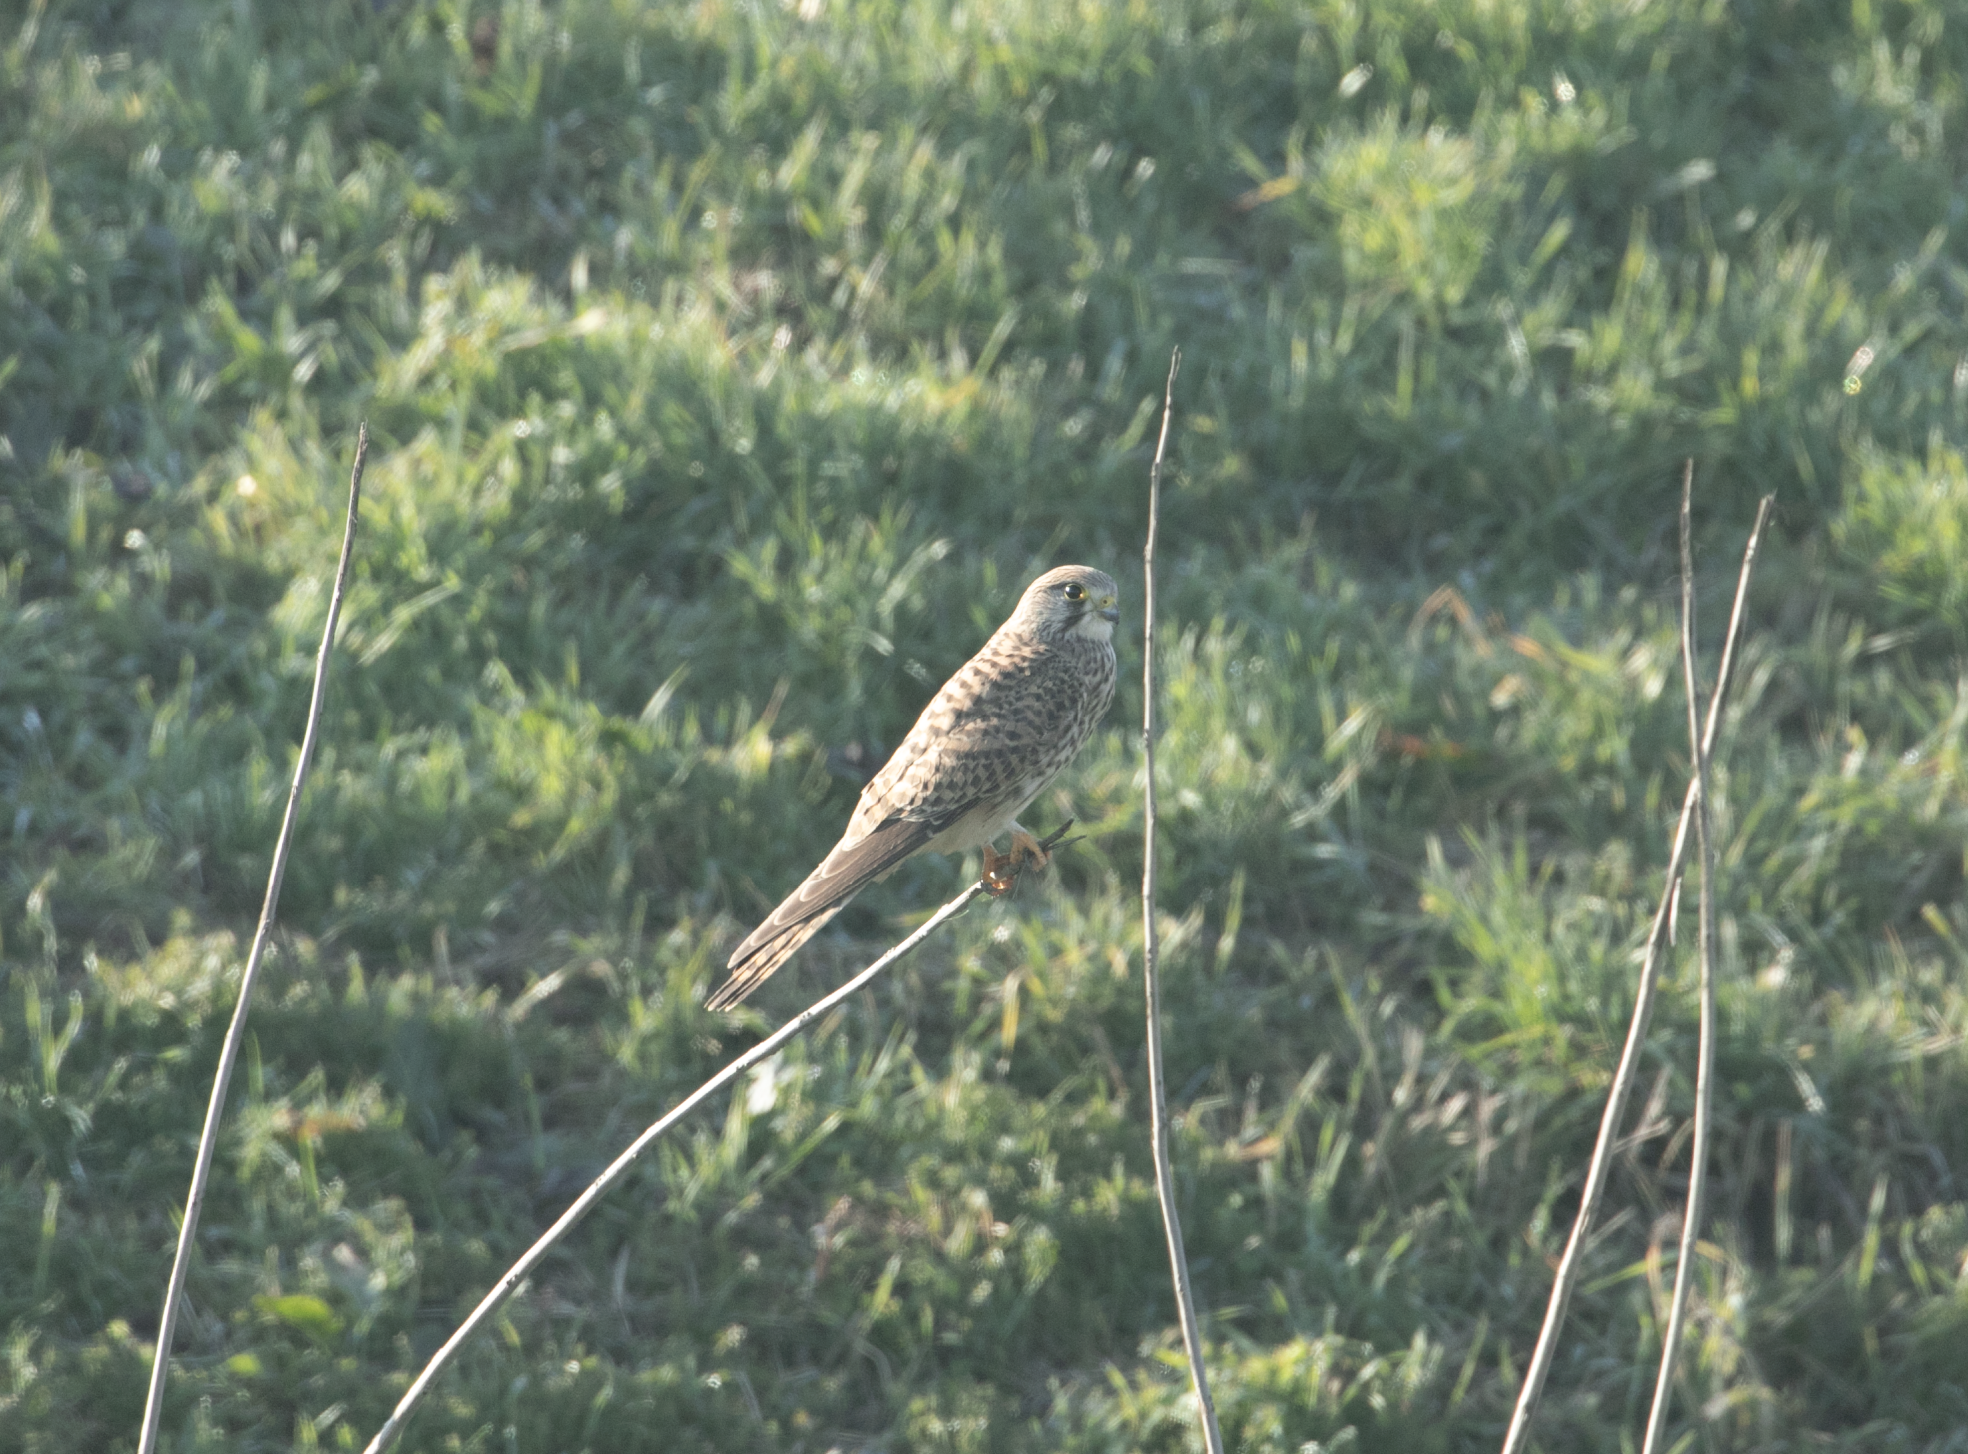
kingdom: Animalia
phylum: Chordata
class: Aves
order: Falconiformes
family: Falconidae
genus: Falco
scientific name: Falco tinnunculus
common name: Common kestrel
